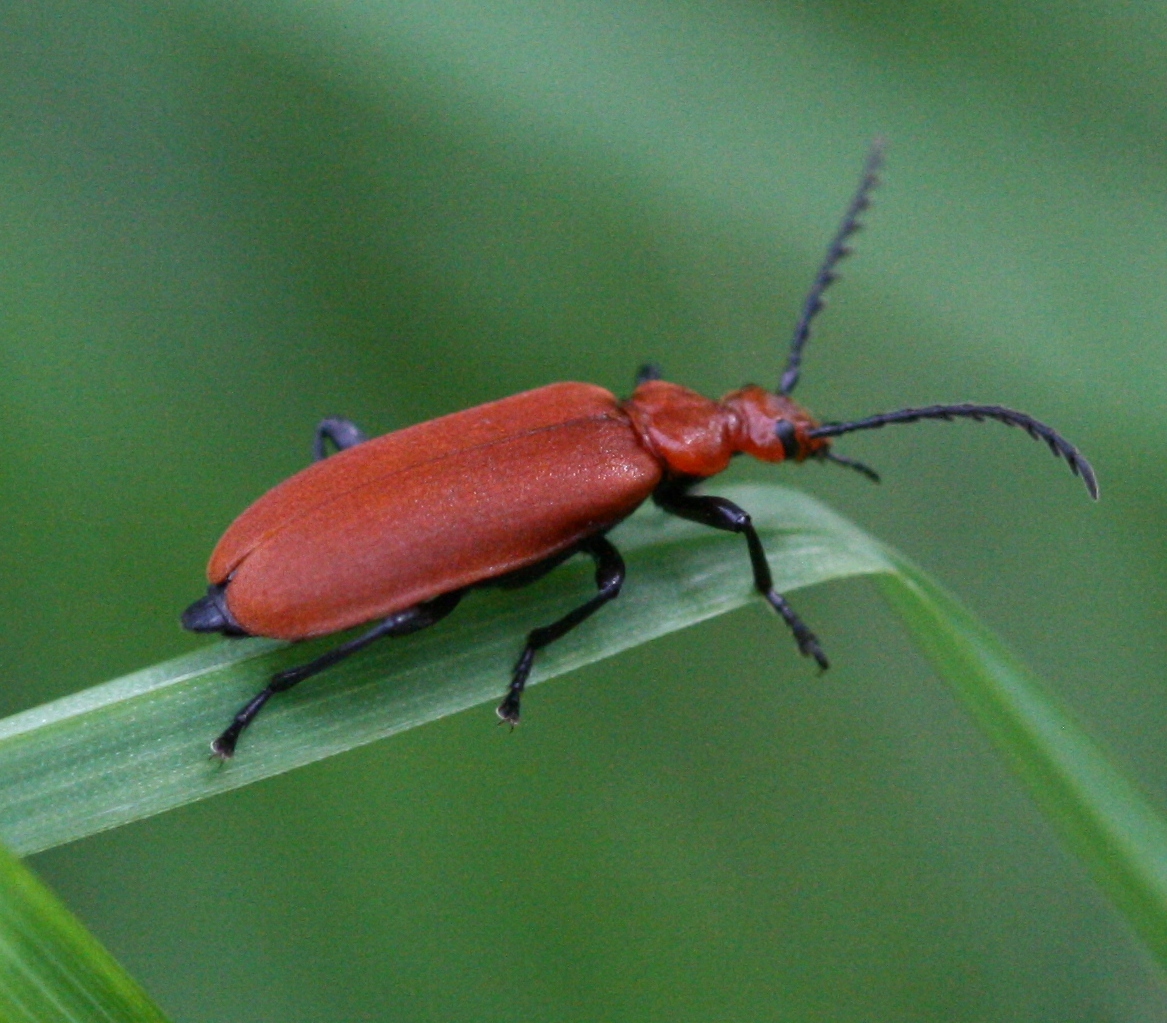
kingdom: Animalia
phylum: Arthropoda
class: Insecta
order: Coleoptera
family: Pyrochroidae
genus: Pyrochroa
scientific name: Pyrochroa serraticornis
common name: Red-headed cardinal beetle
